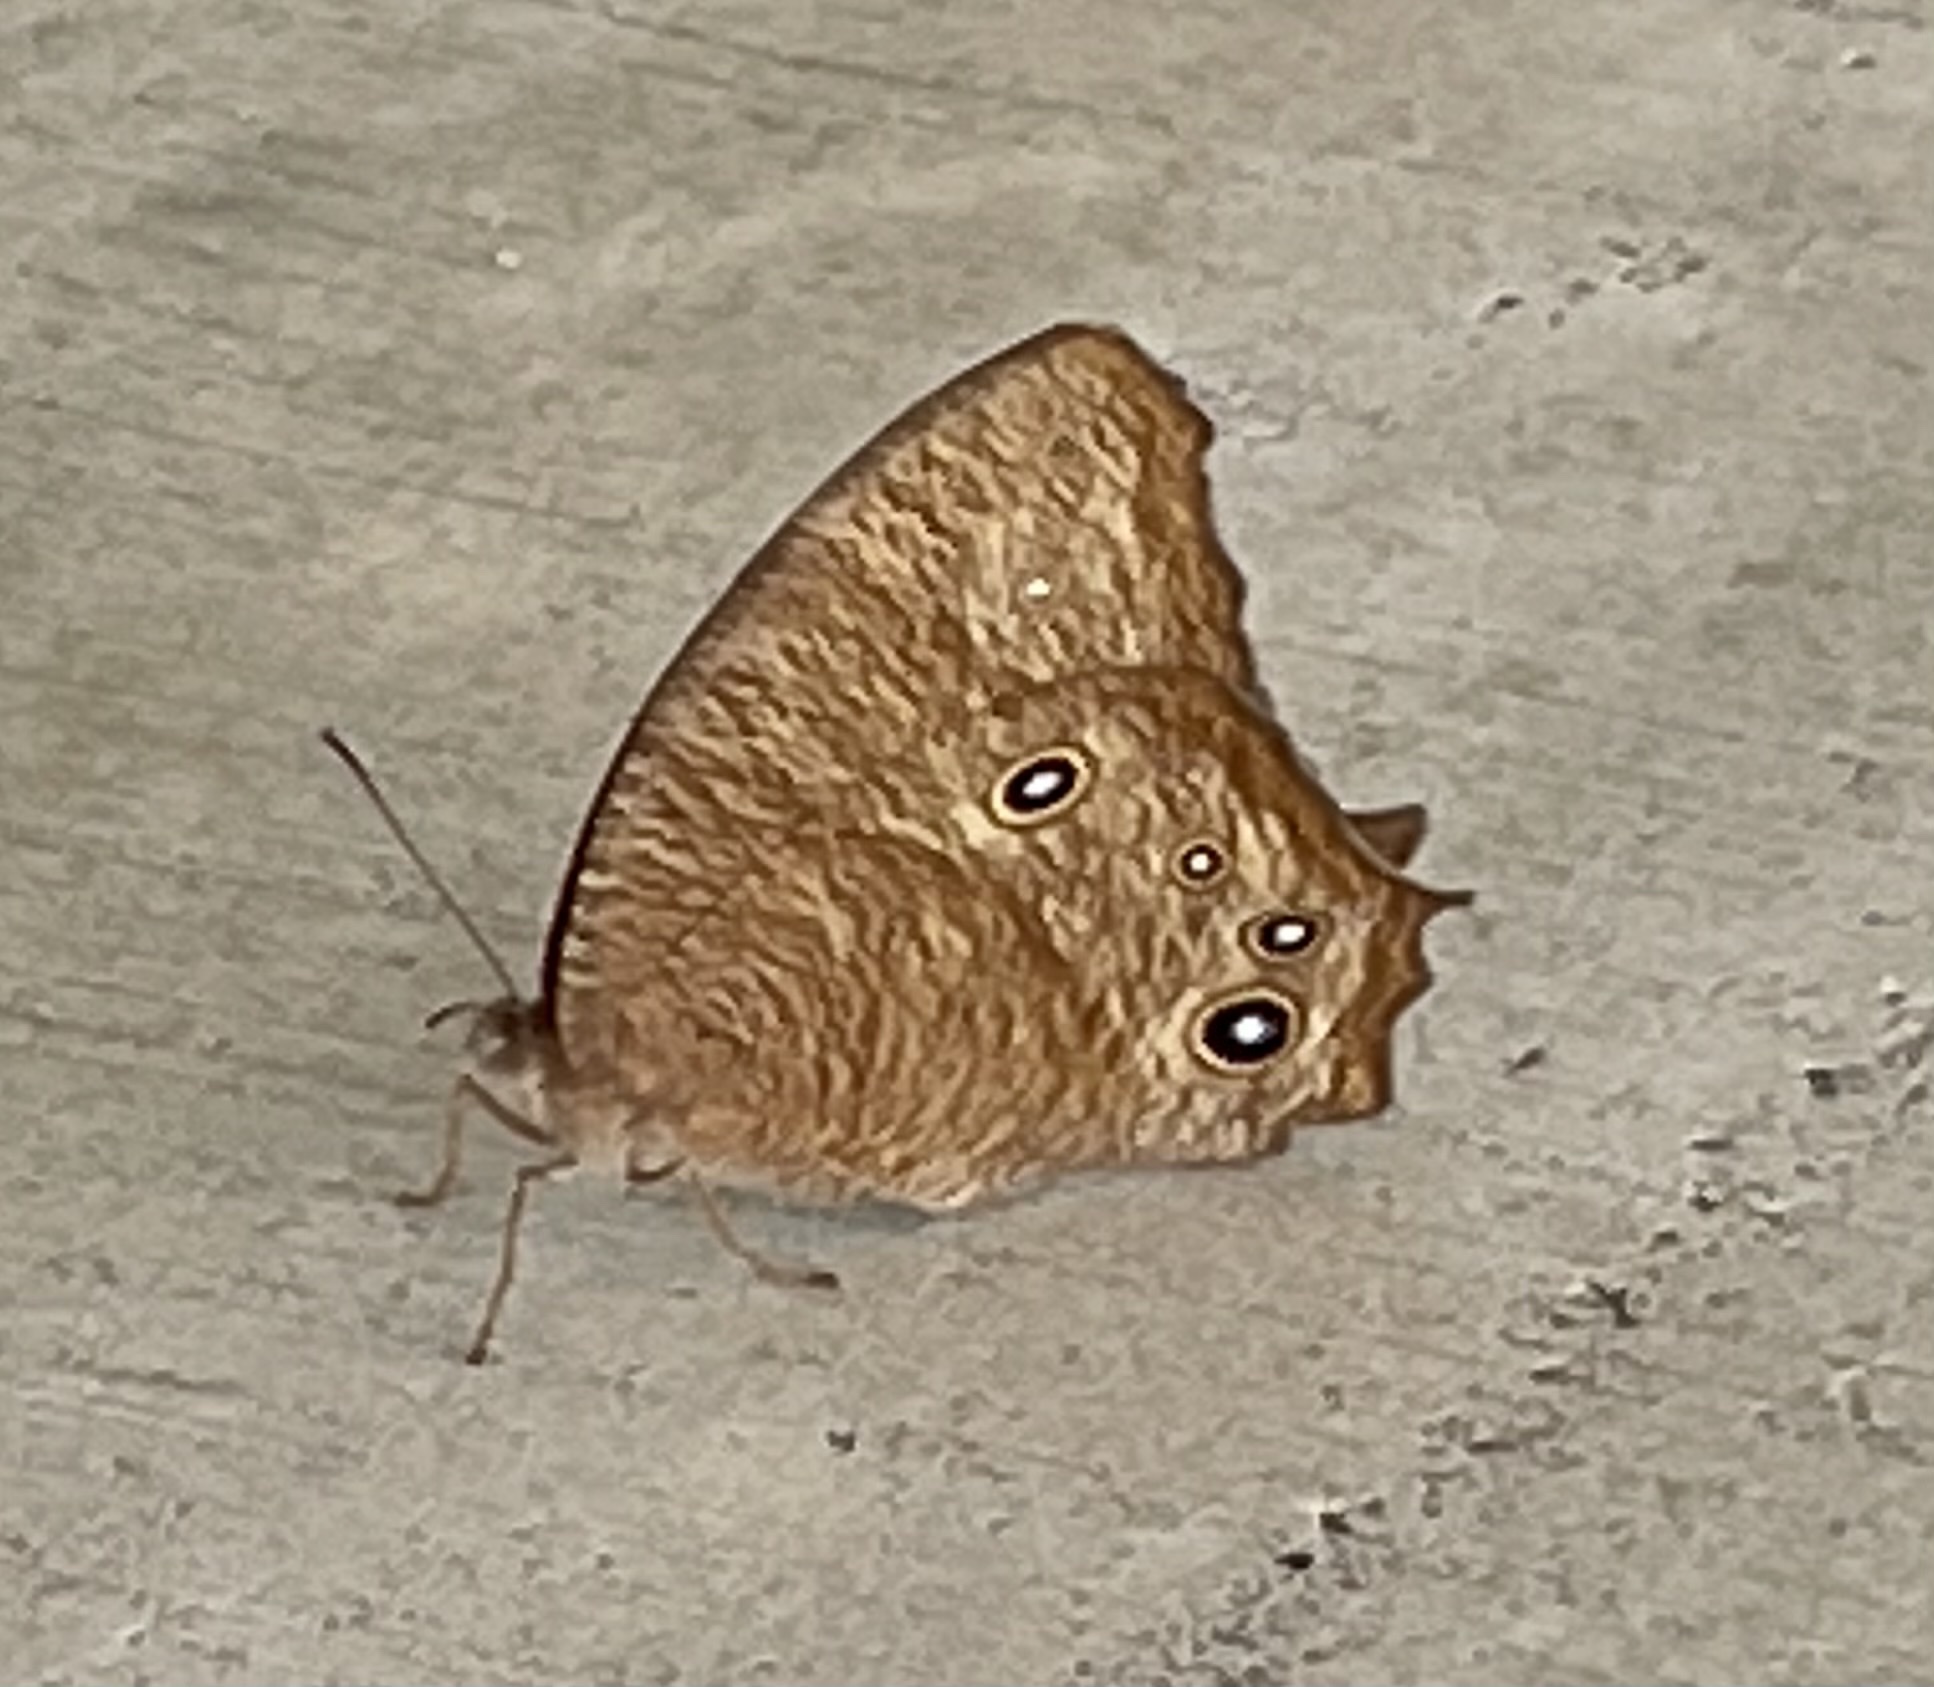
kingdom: Animalia
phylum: Arthropoda
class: Insecta
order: Lepidoptera
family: Nymphalidae
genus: Melanitis
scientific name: Melanitis leda
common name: Twilight brown
